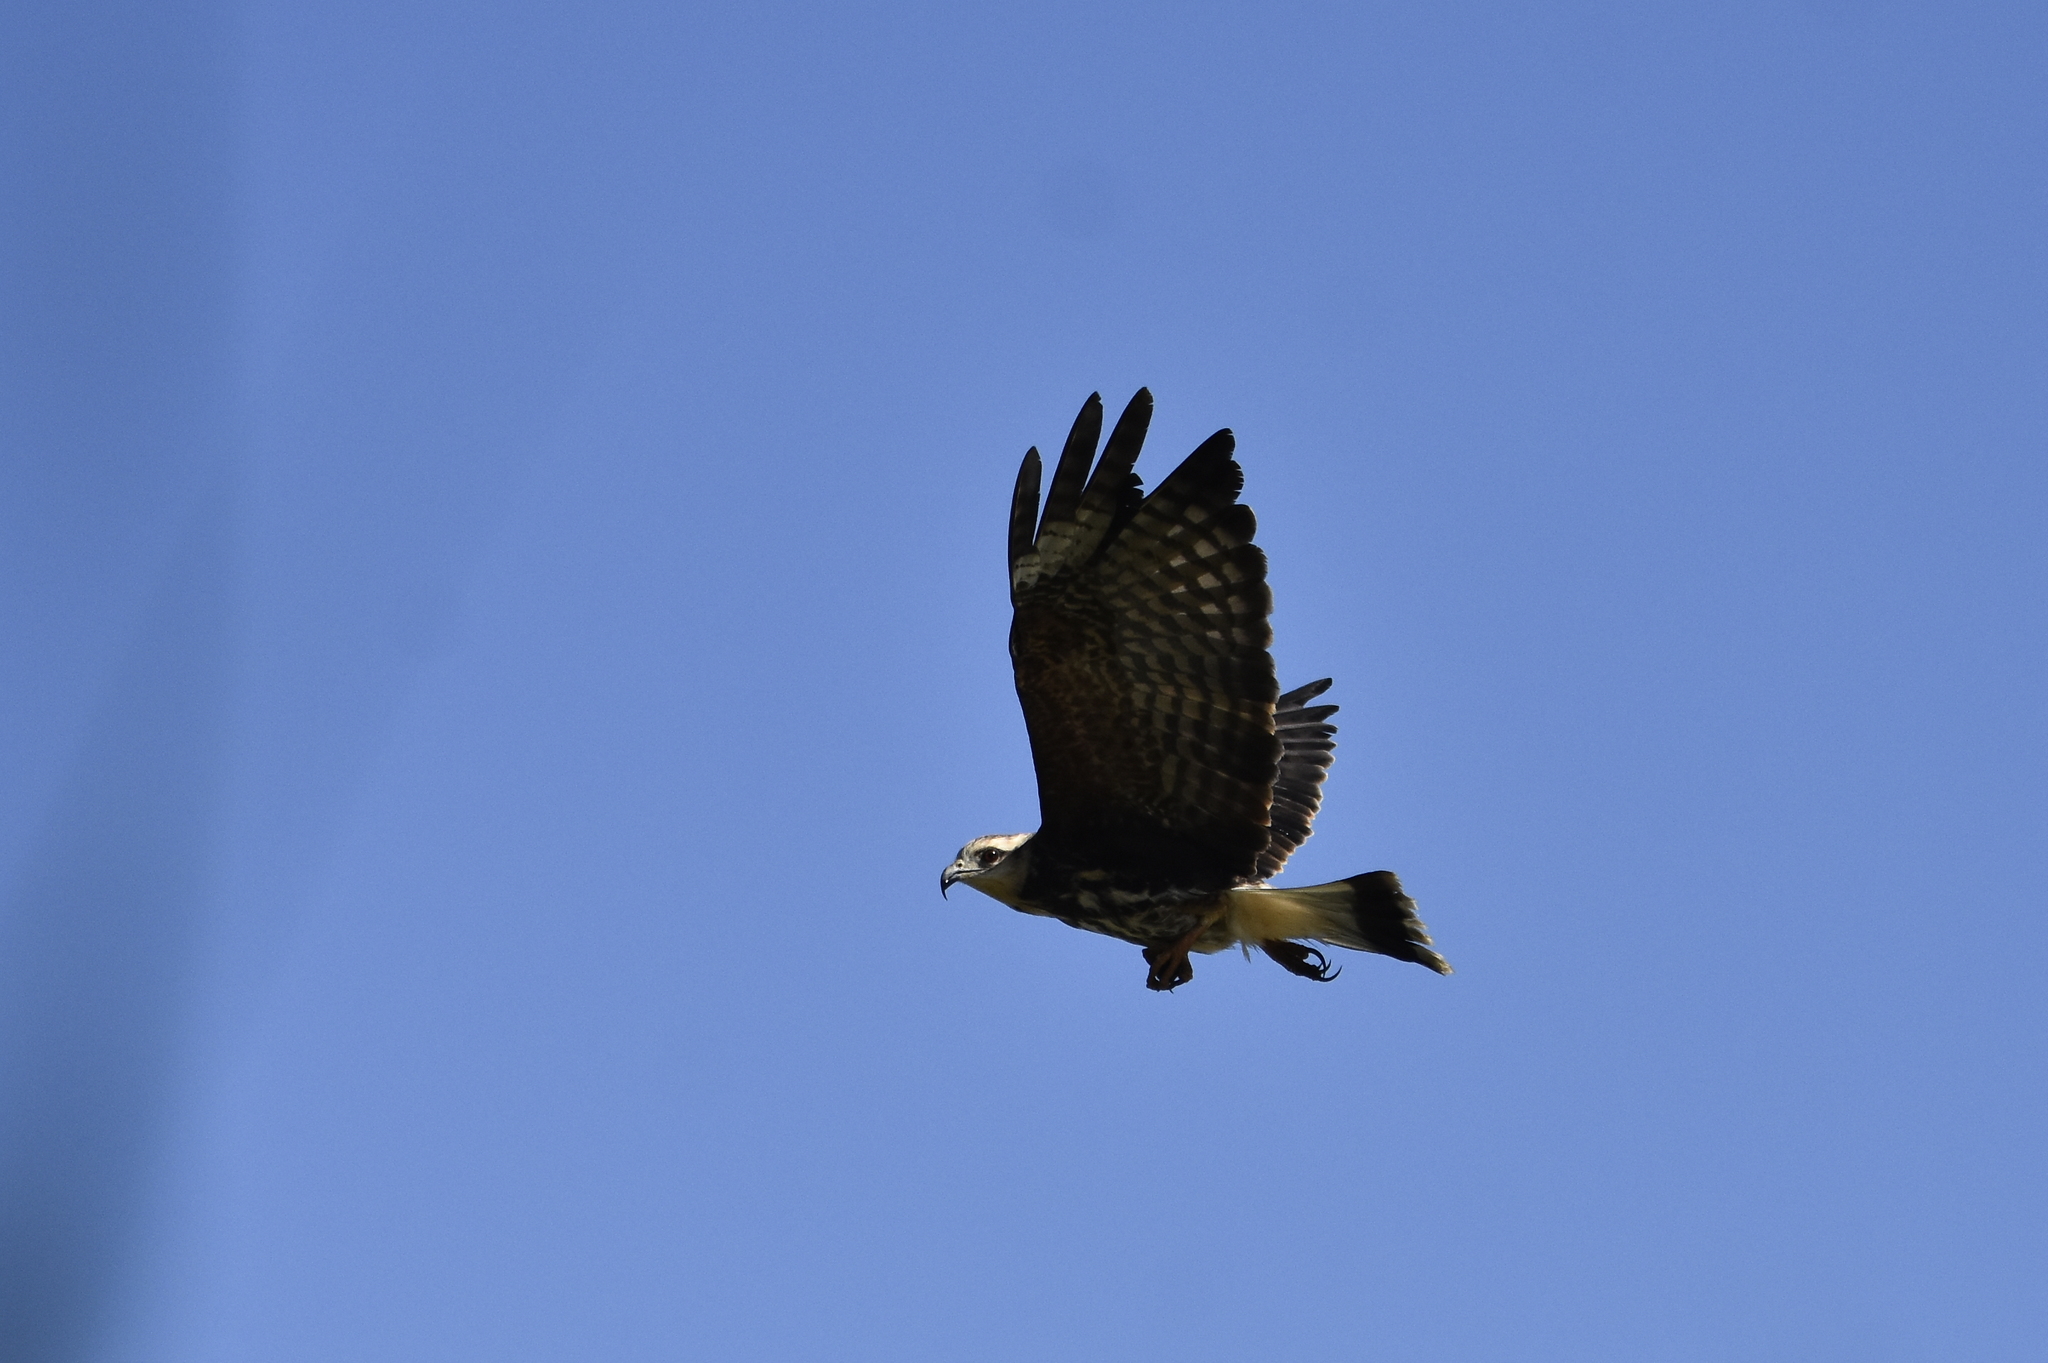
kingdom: Animalia
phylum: Chordata
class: Aves
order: Accipitriformes
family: Accipitridae
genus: Rostrhamus
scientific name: Rostrhamus sociabilis
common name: Snail kite
